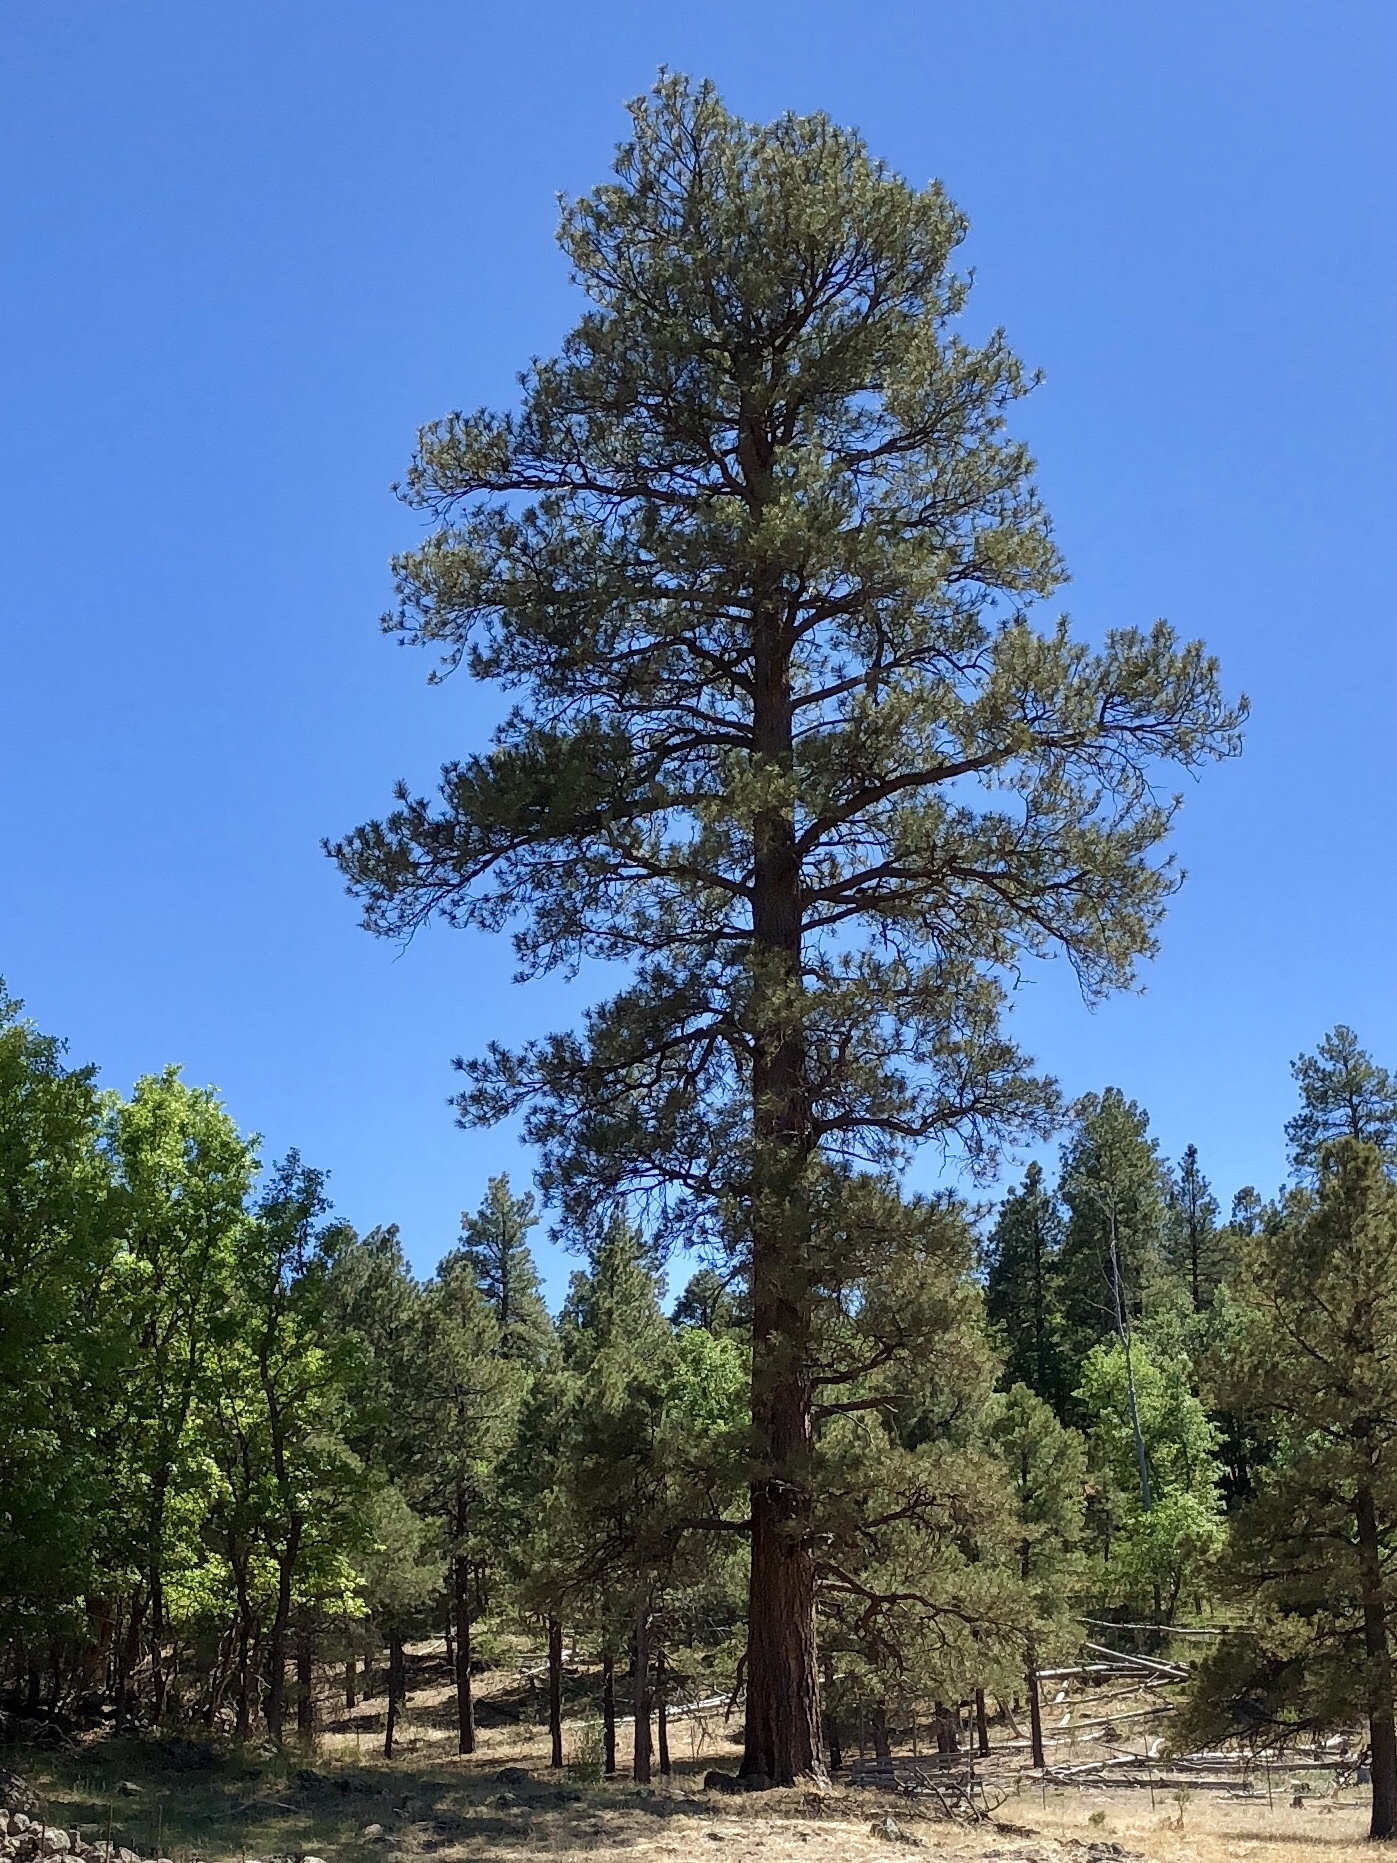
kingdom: Plantae
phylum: Tracheophyta
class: Pinopsida
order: Pinales
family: Pinaceae
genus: Pinus
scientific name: Pinus ponderosa
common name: Western yellow-pine
